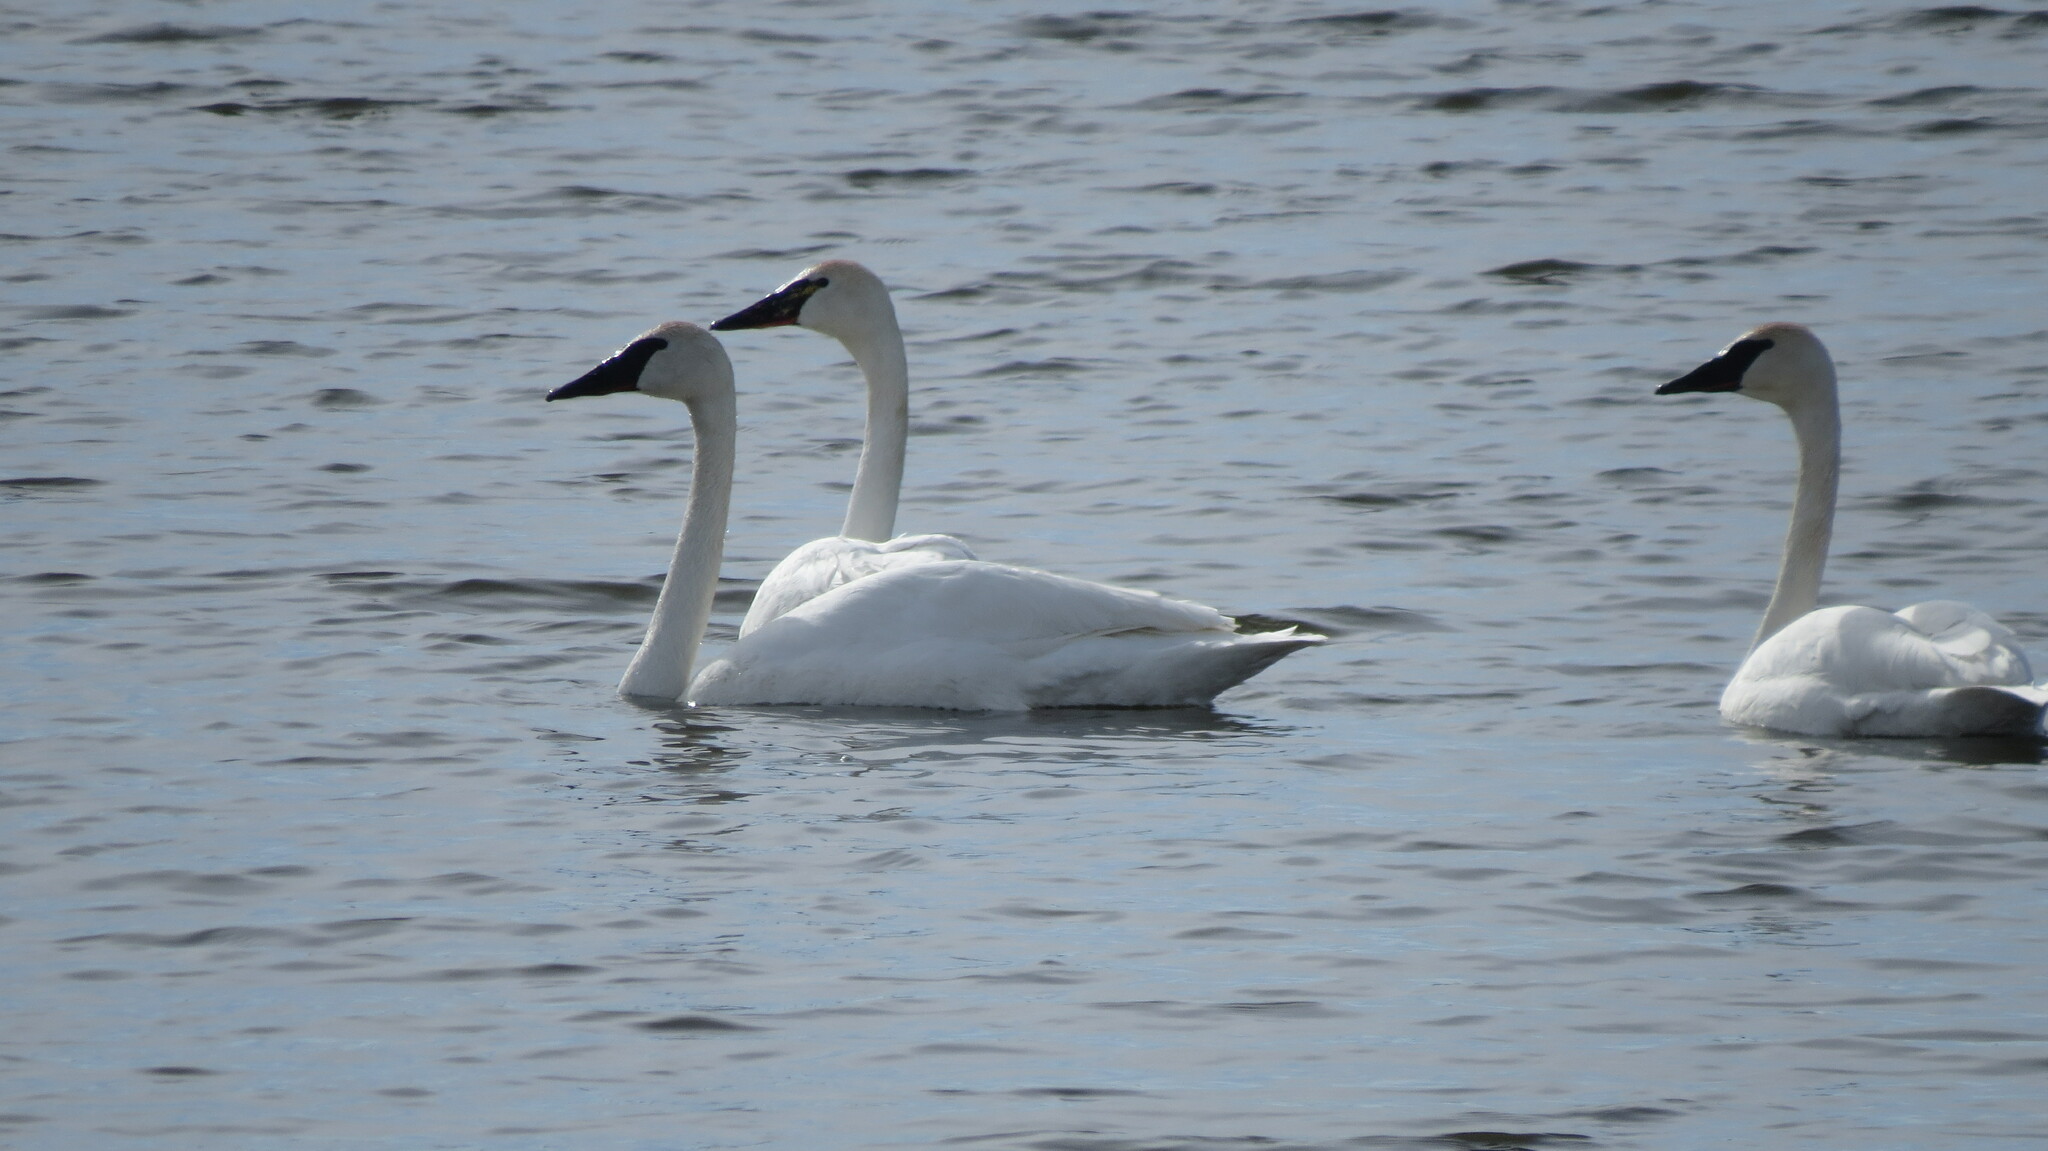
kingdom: Animalia
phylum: Chordata
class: Aves
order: Anseriformes
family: Anatidae
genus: Cygnus
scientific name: Cygnus buccinator
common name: Trumpeter swan
